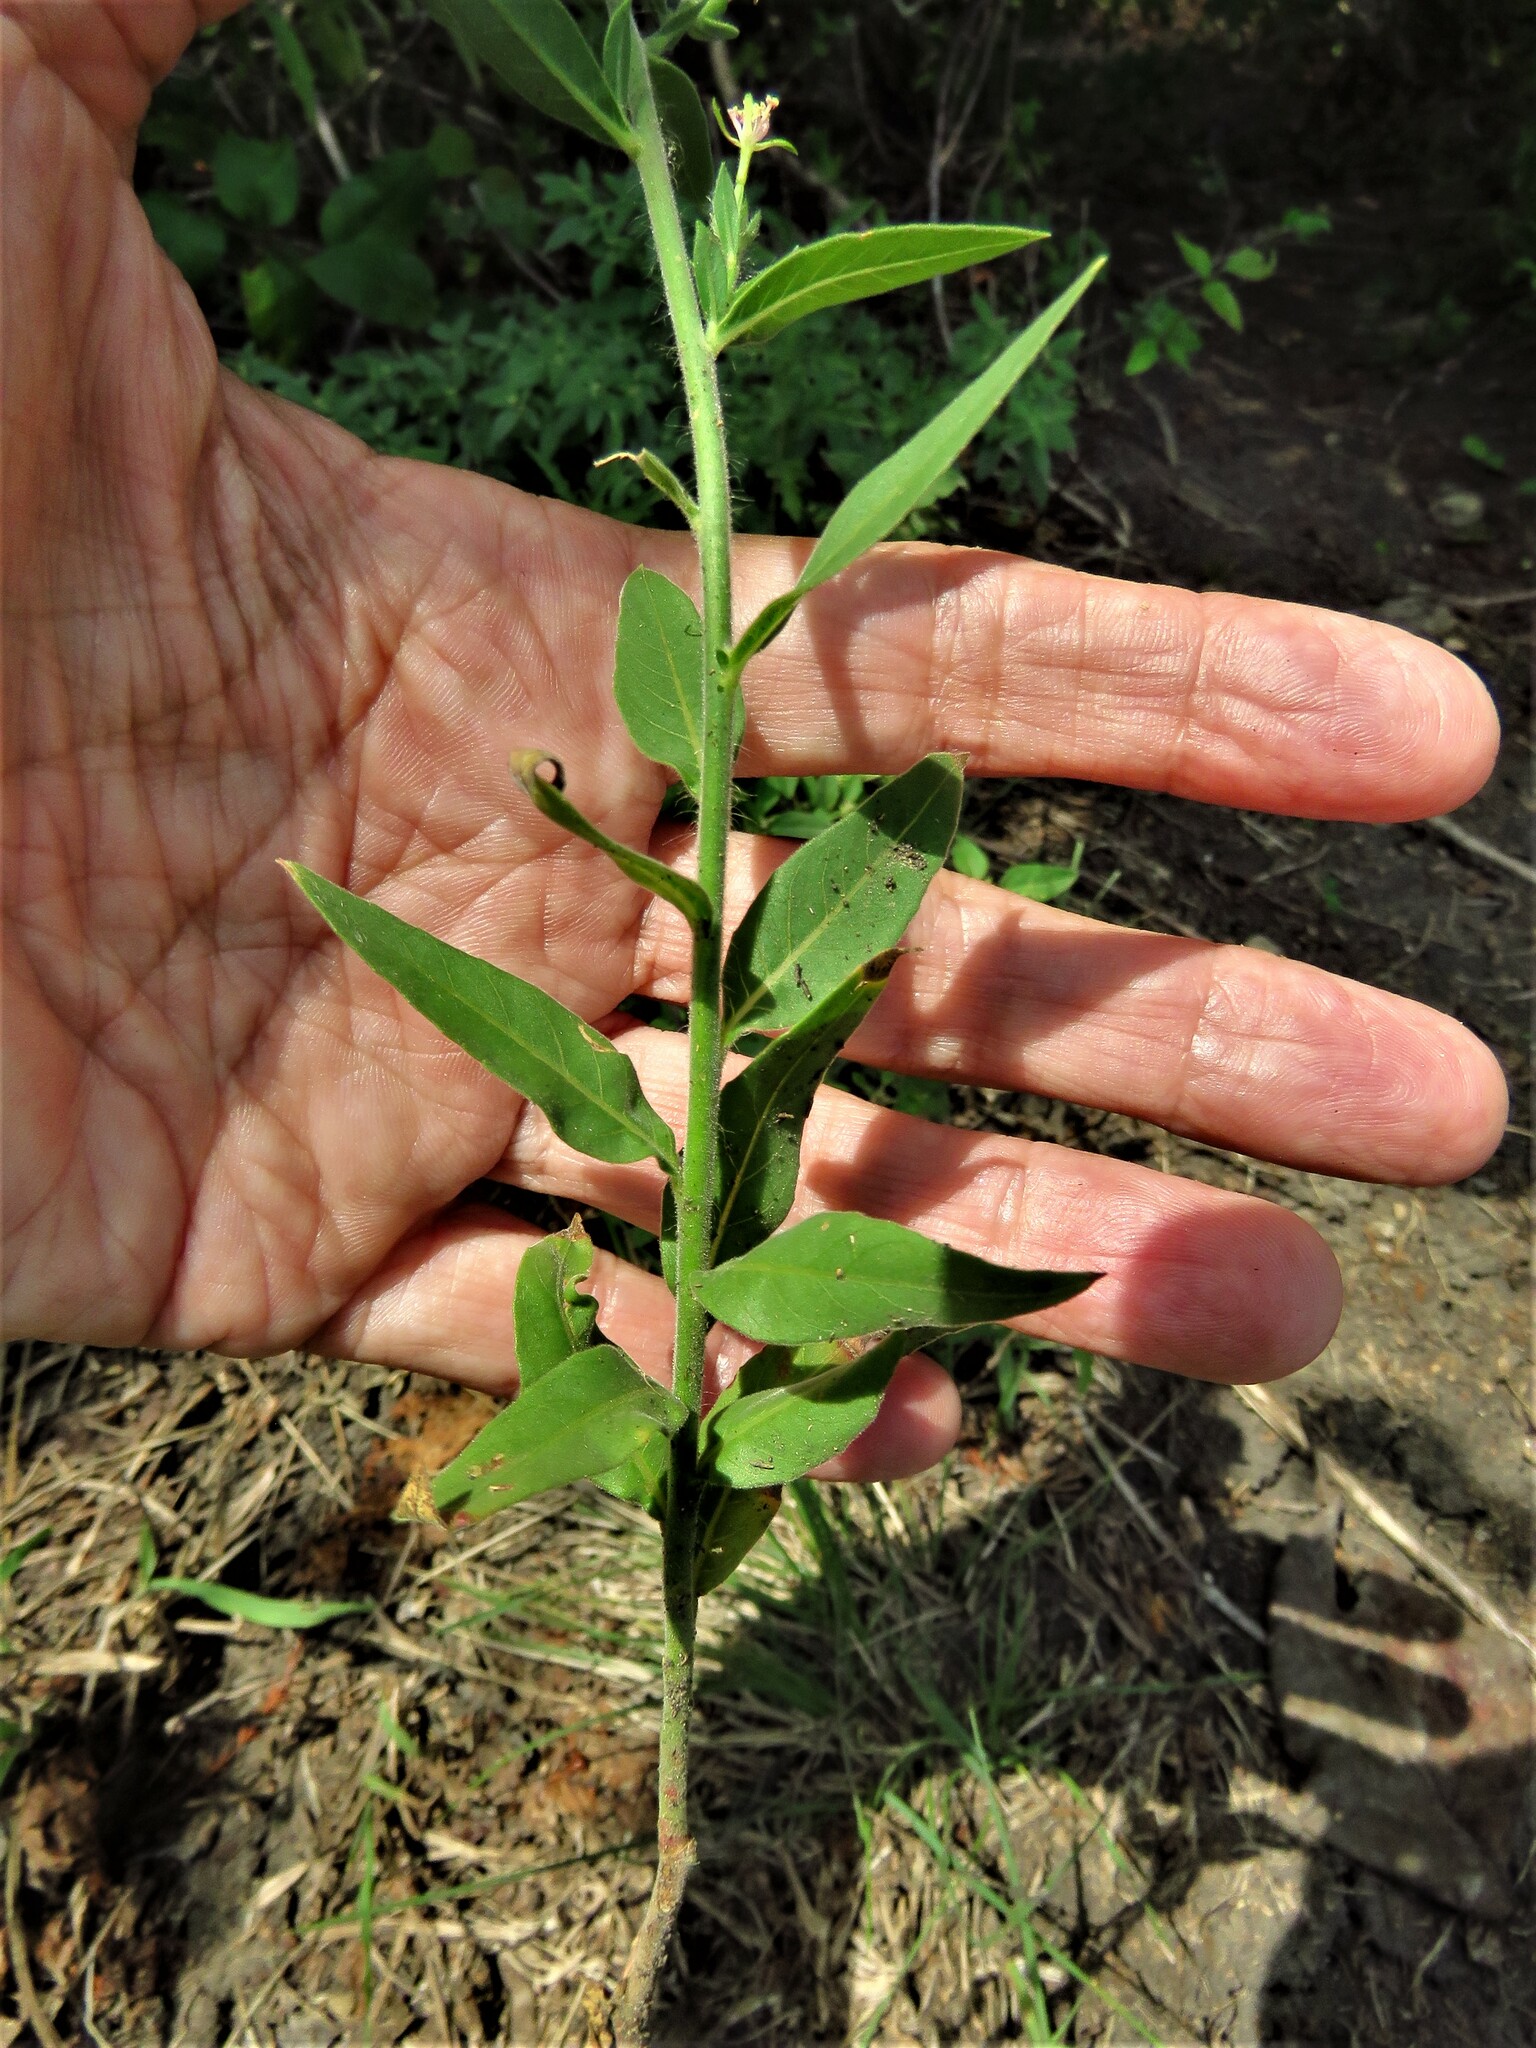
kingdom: Plantae
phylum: Tracheophyta
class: Magnoliopsida
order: Myrtales
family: Onagraceae
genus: Oenothera
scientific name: Oenothera curtiflora
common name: Velvetweed
